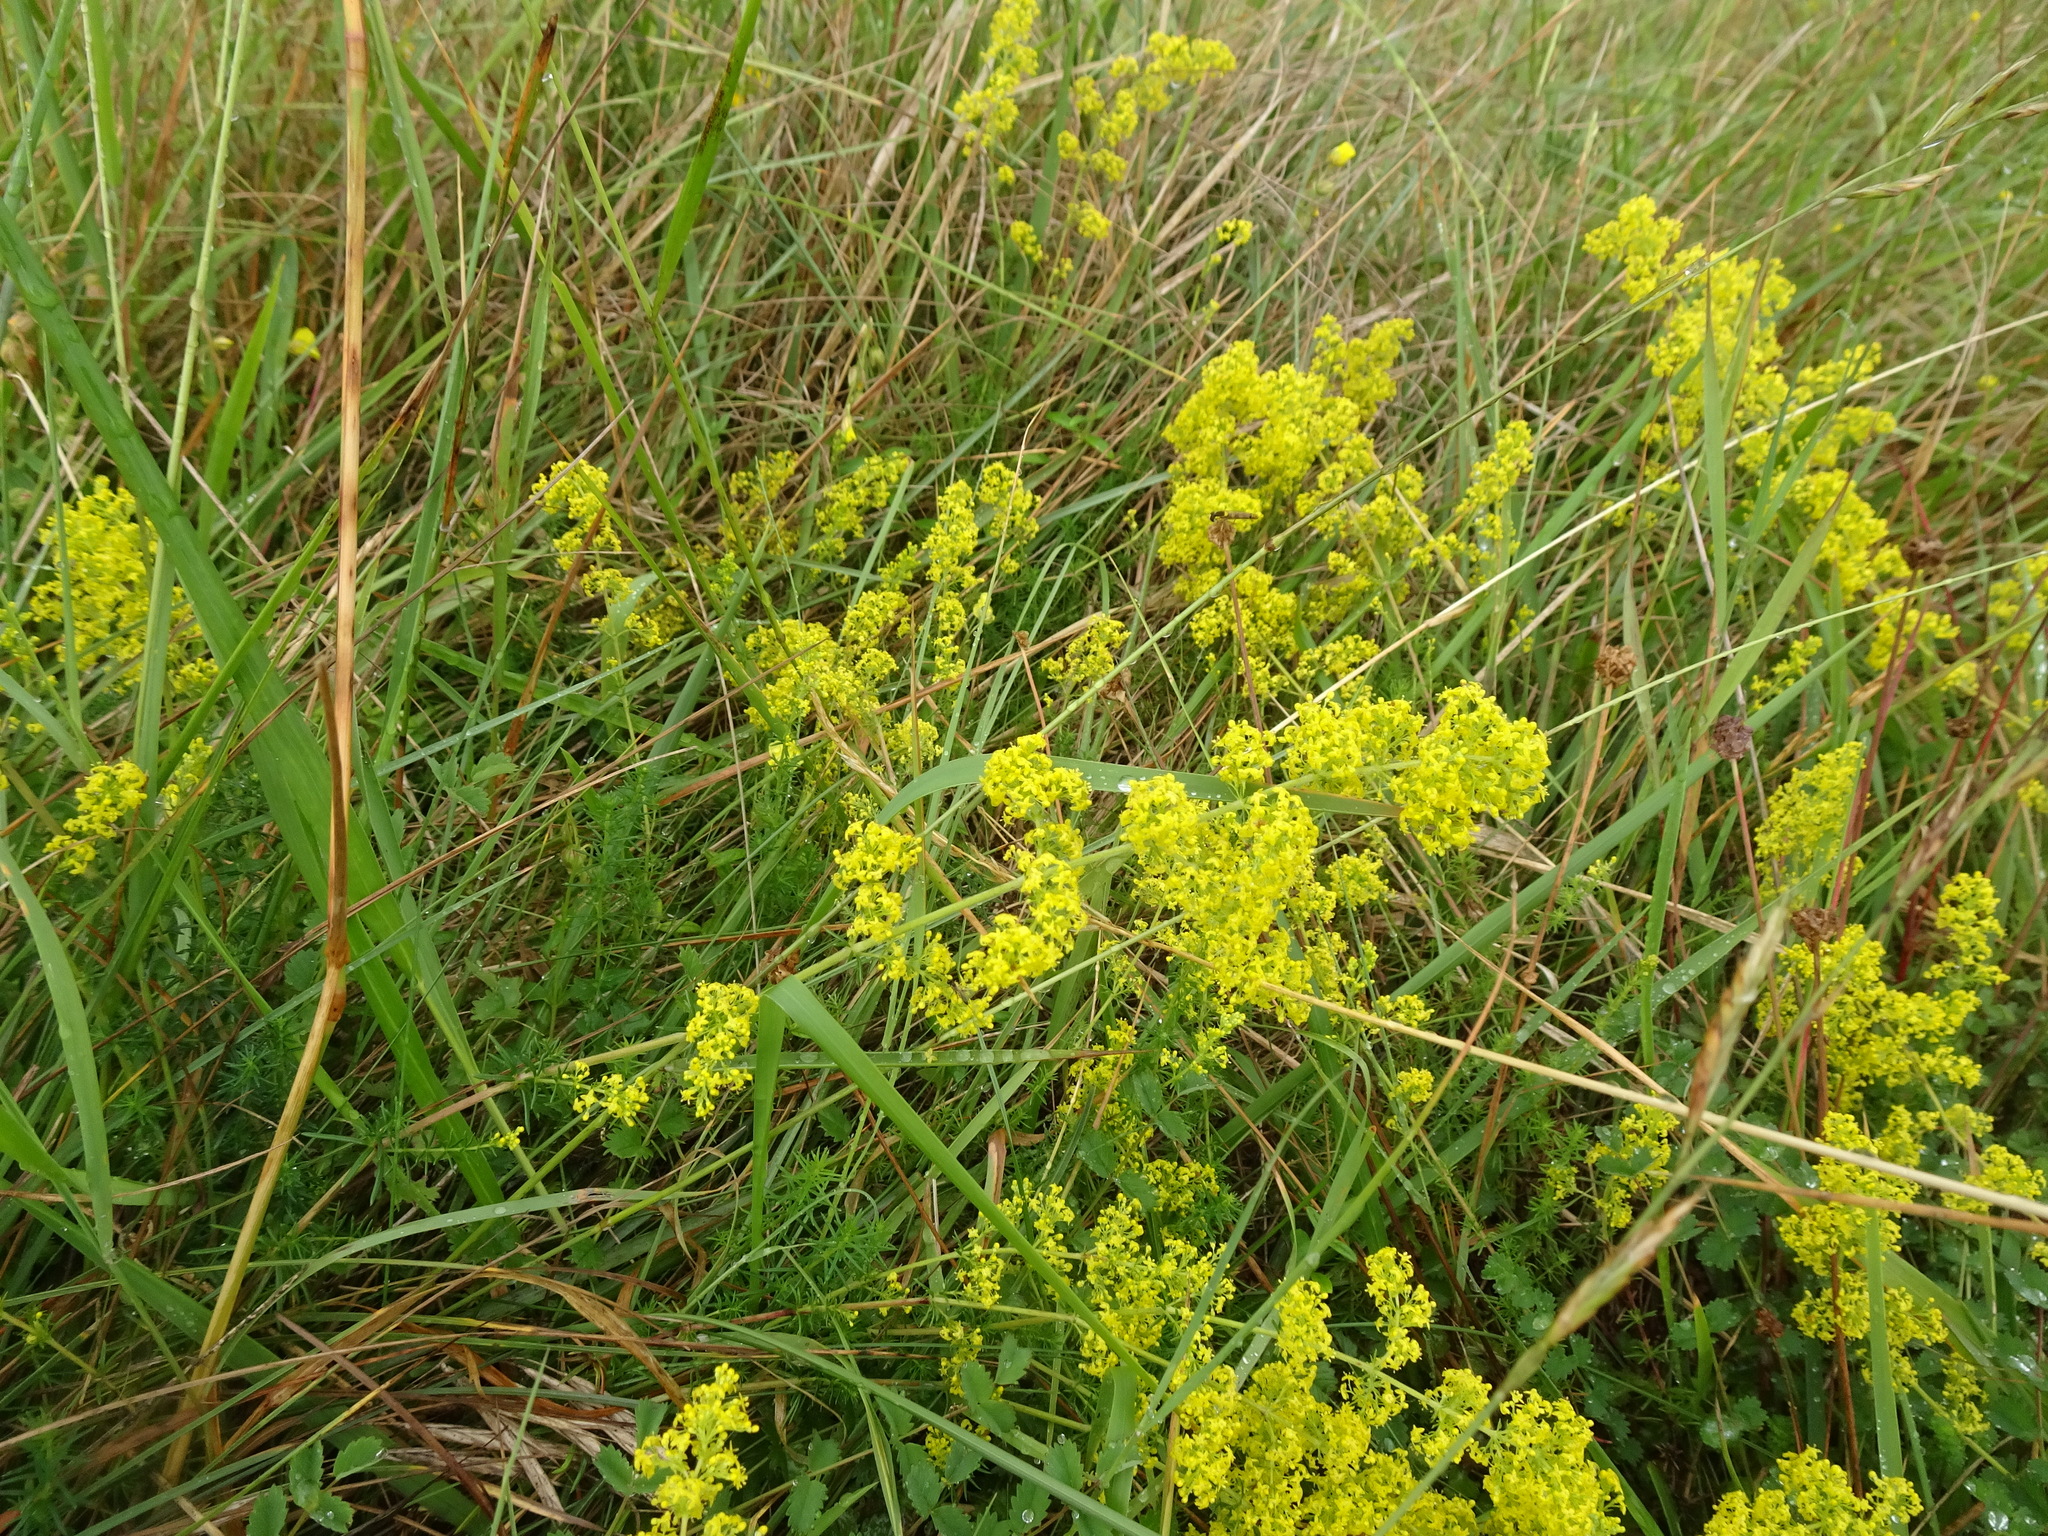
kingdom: Plantae
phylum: Tracheophyta
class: Magnoliopsida
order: Gentianales
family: Rubiaceae
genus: Galium
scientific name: Galium verum
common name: Lady's bedstraw
